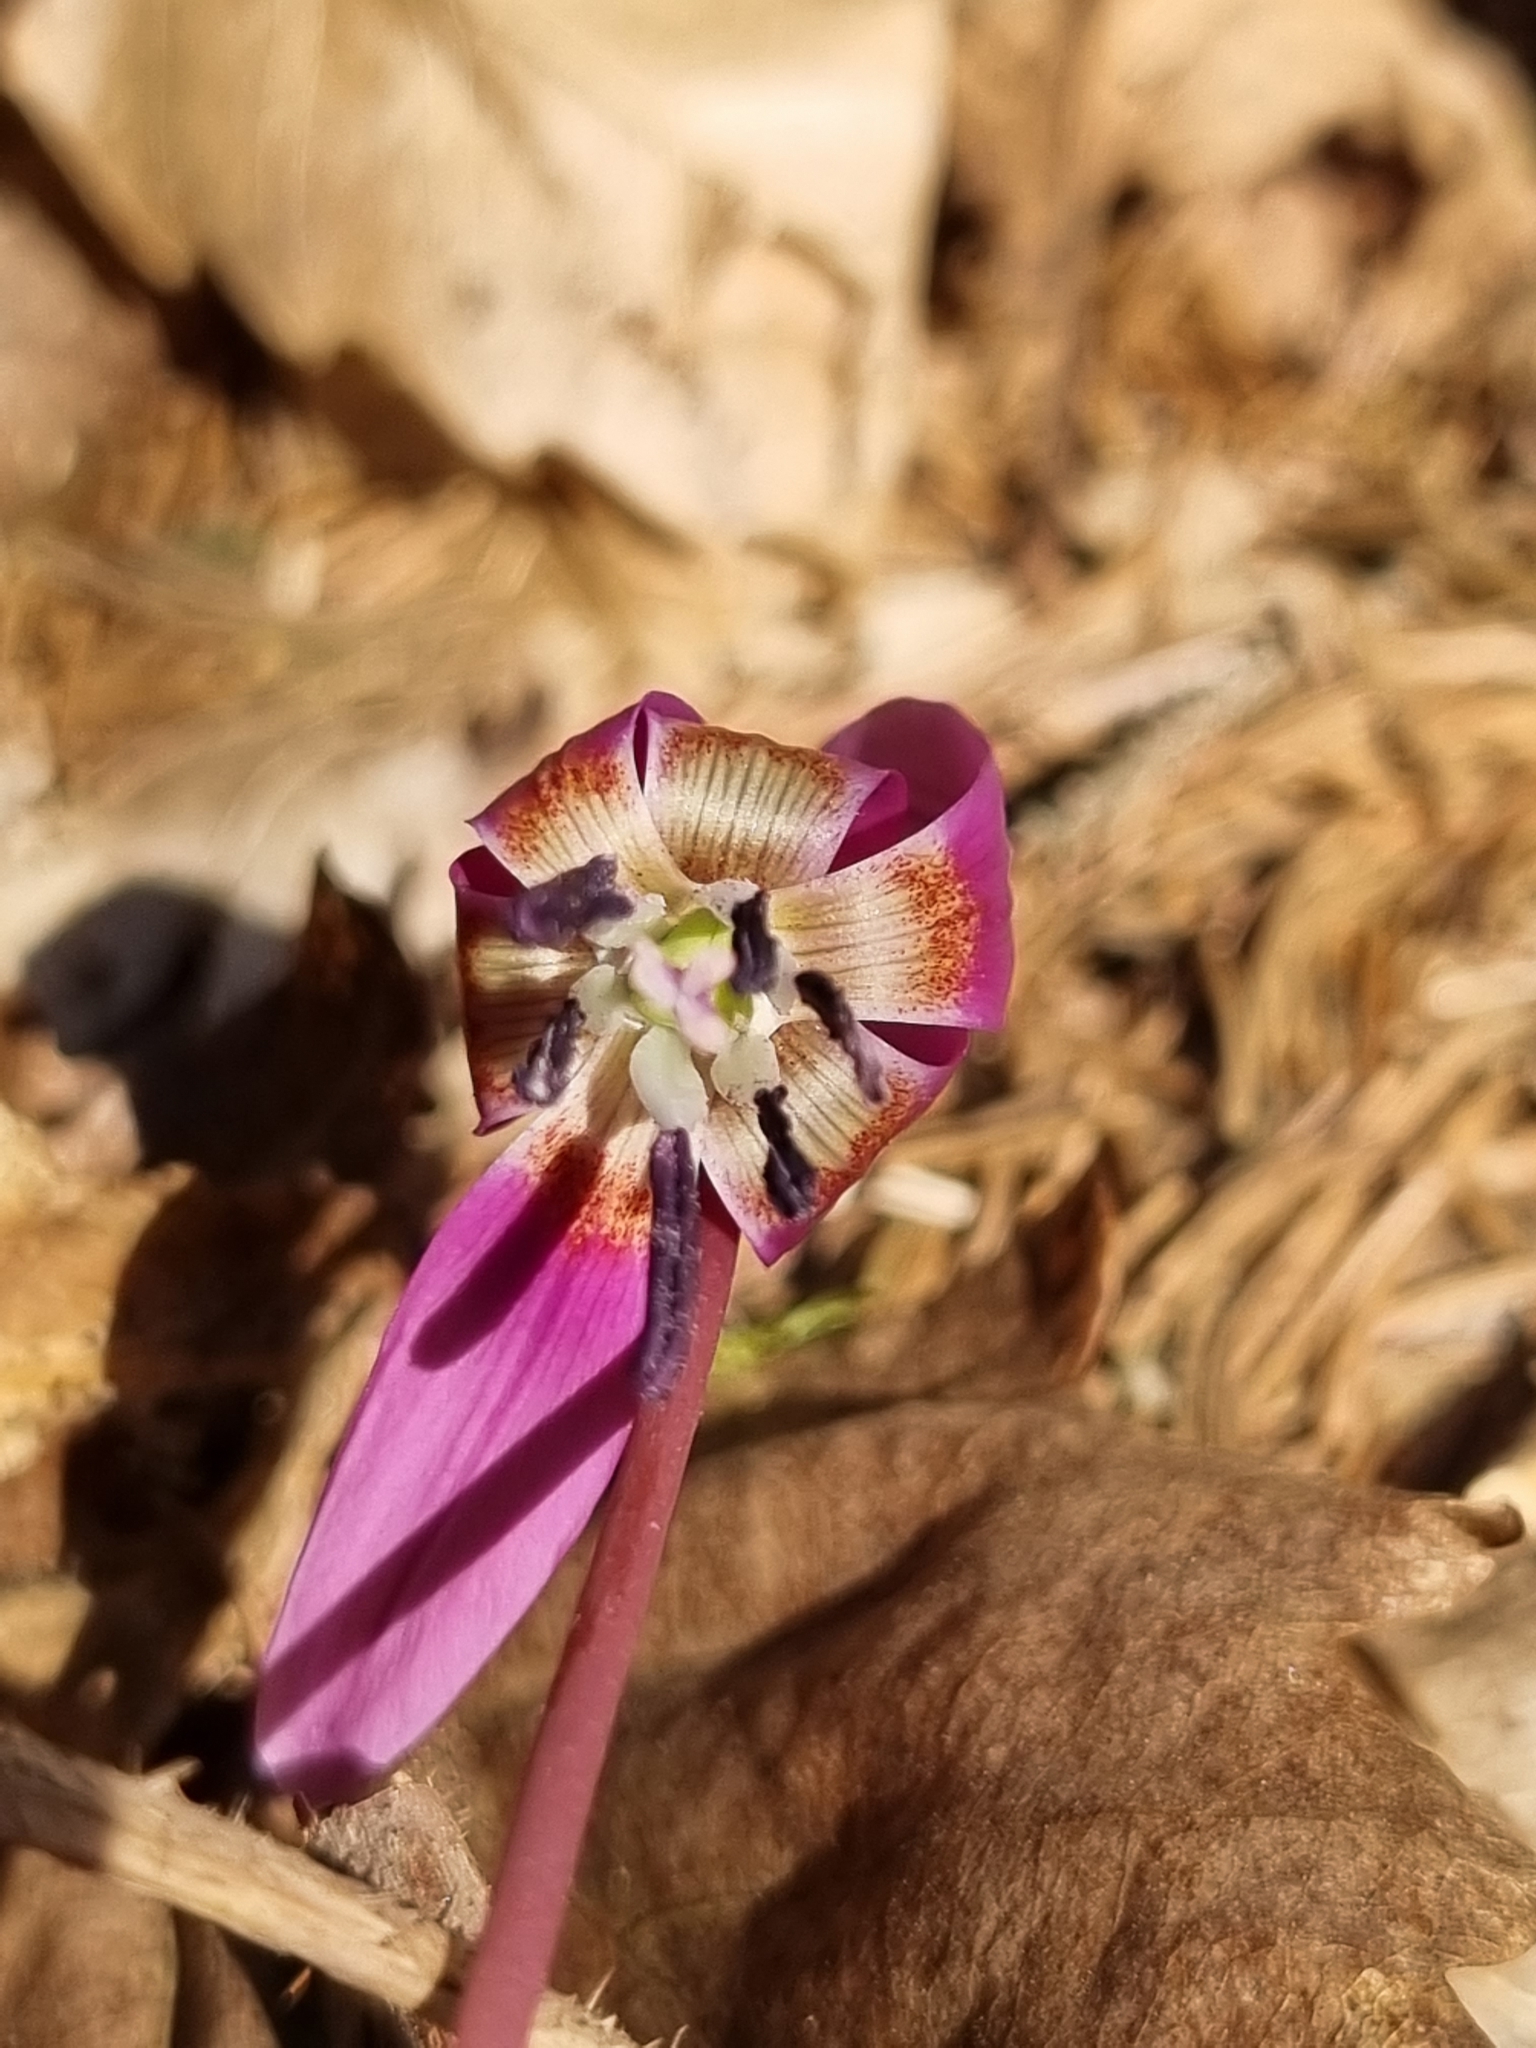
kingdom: Plantae
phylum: Tracheophyta
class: Liliopsida
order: Liliales
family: Liliaceae
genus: Erythronium
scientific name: Erythronium dens-canis
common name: Dog's-tooth-violet
